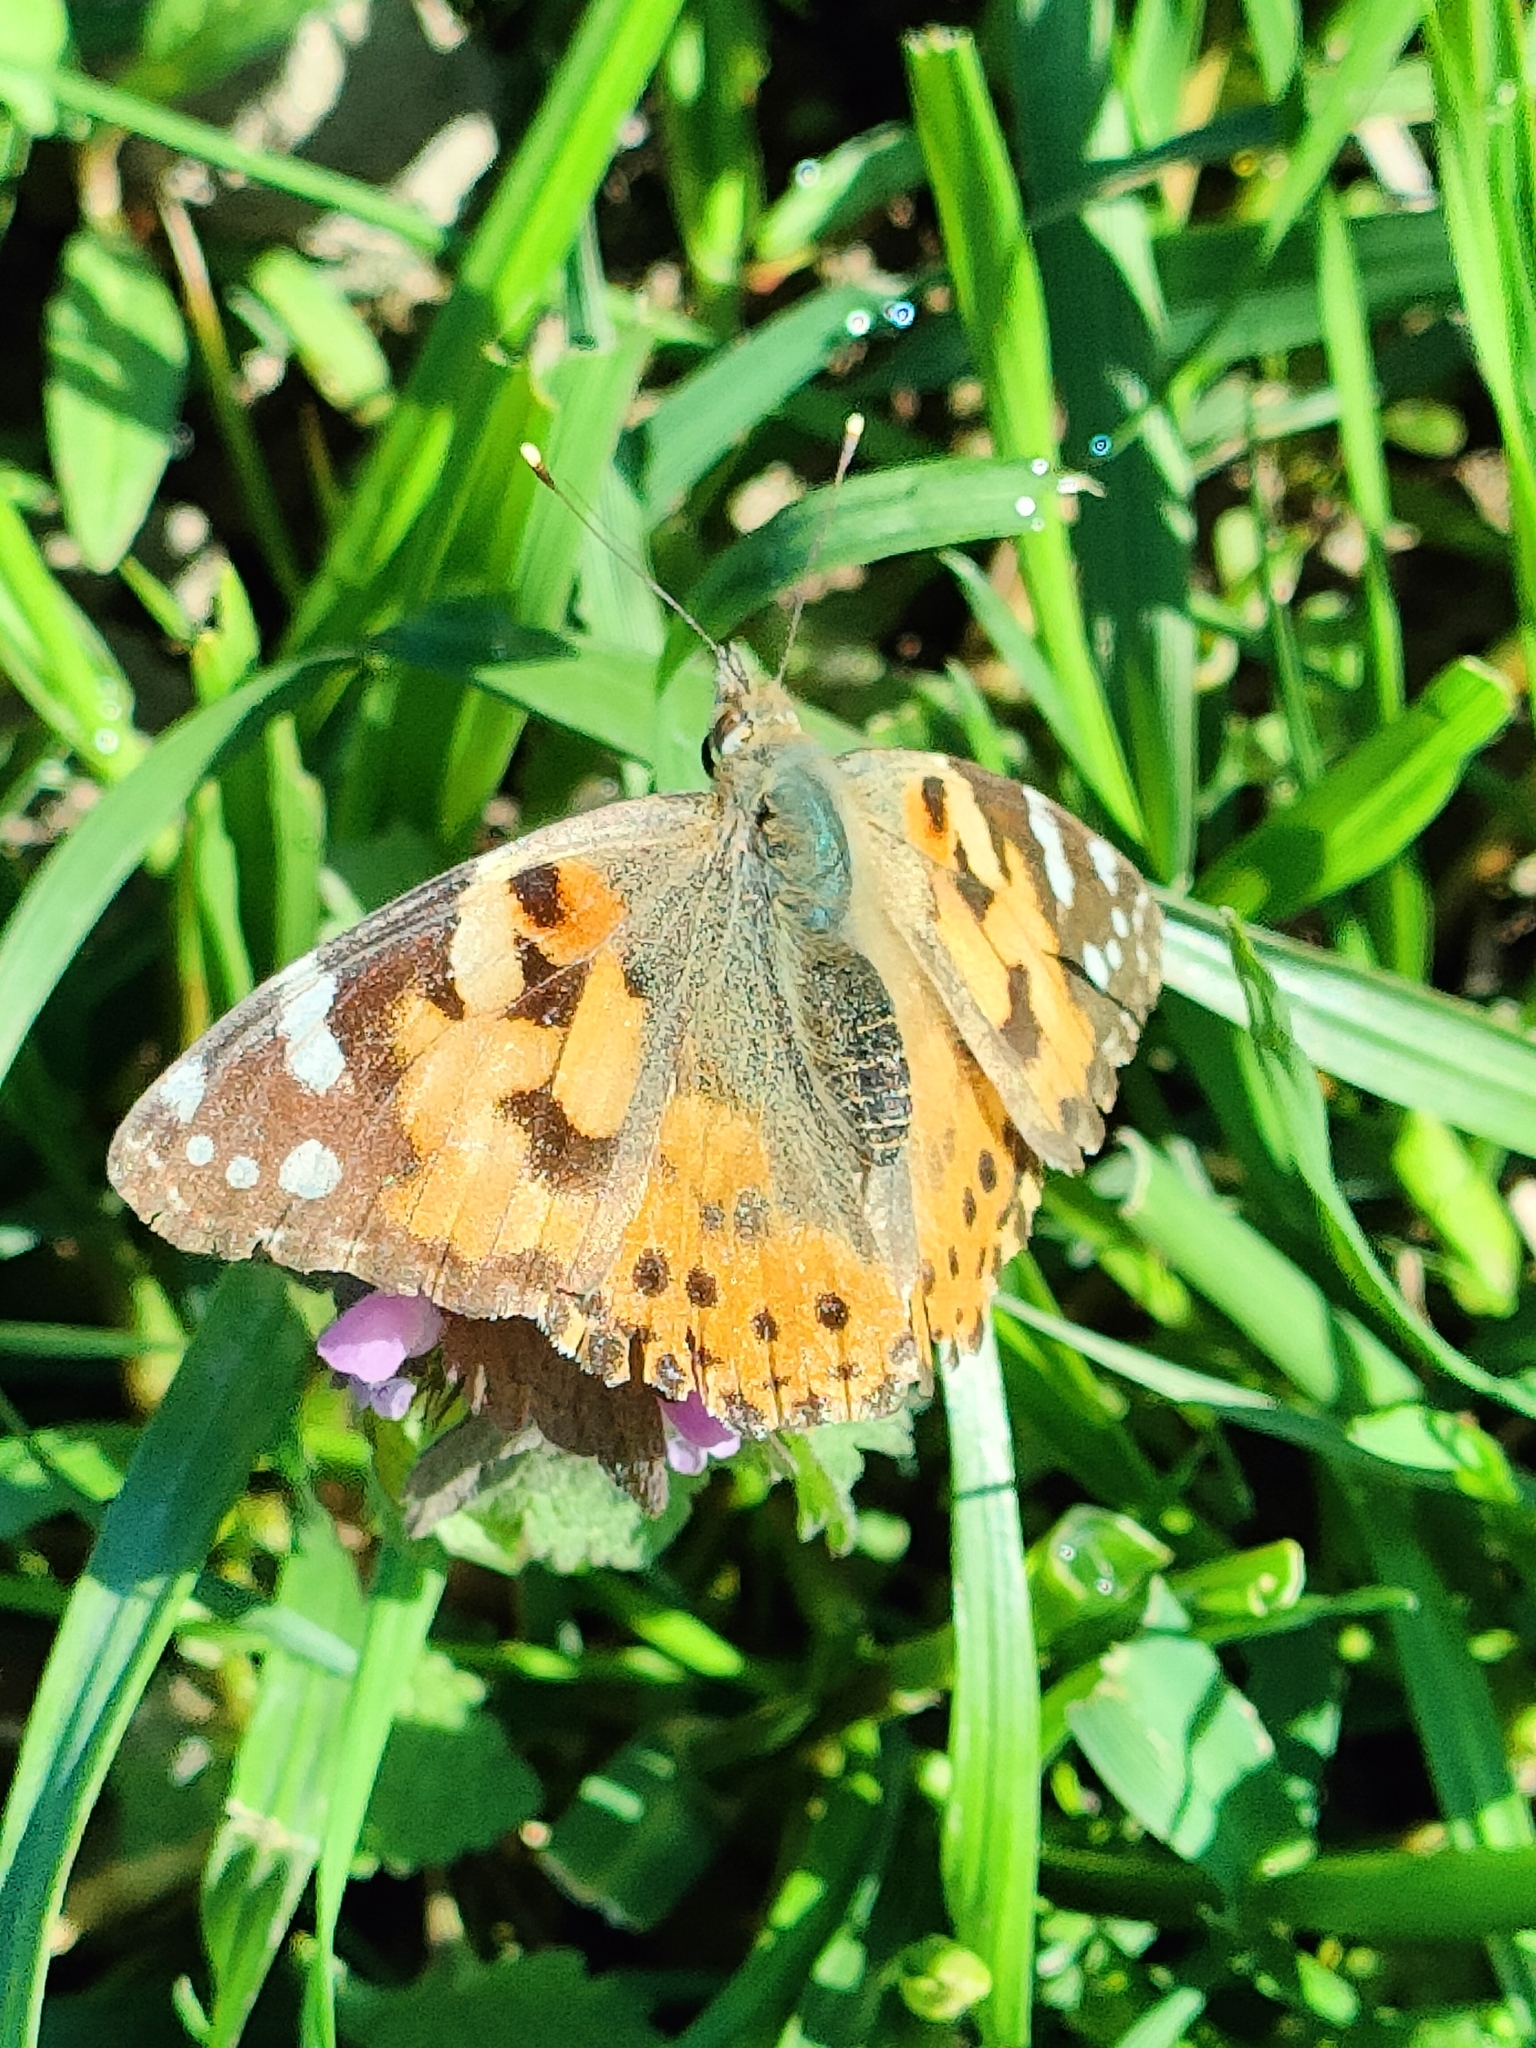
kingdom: Animalia
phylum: Arthropoda
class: Insecta
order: Lepidoptera
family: Nymphalidae
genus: Vanessa
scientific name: Vanessa cardui
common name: Painted lady
